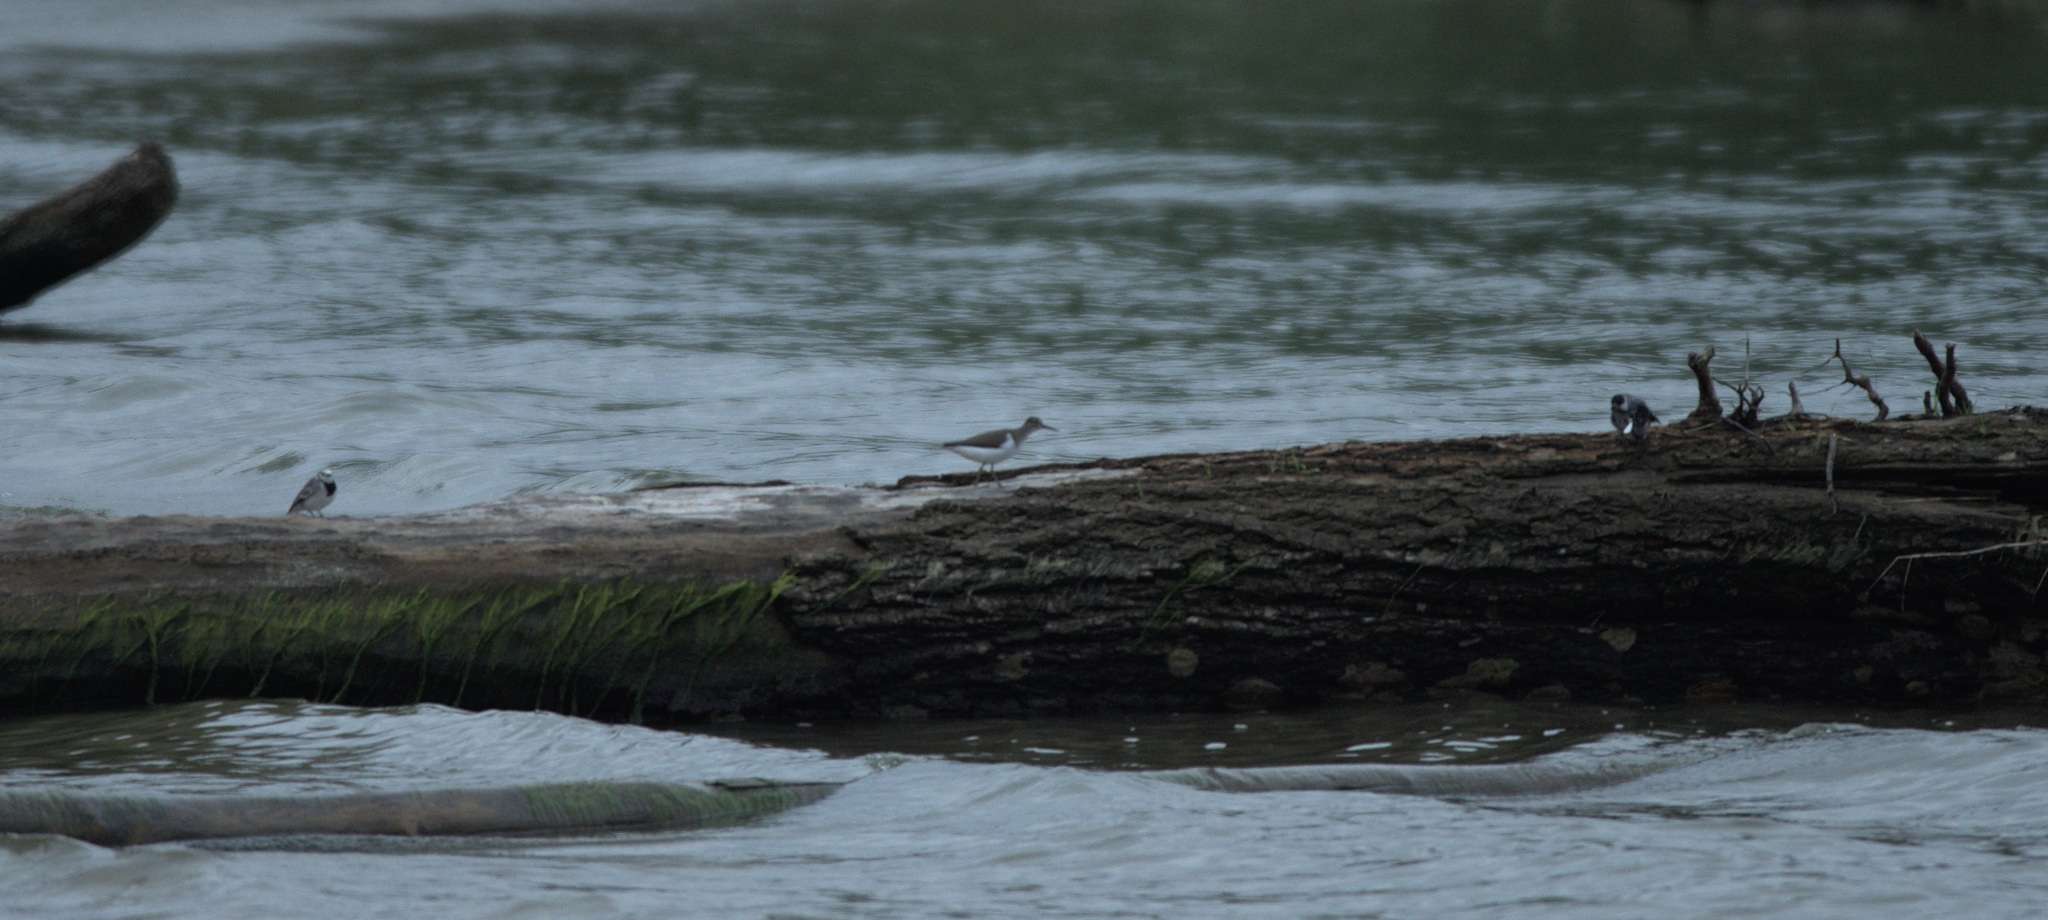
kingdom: Animalia
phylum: Chordata
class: Aves
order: Charadriiformes
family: Scolopacidae
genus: Actitis
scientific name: Actitis hypoleucos
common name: Common sandpiper
